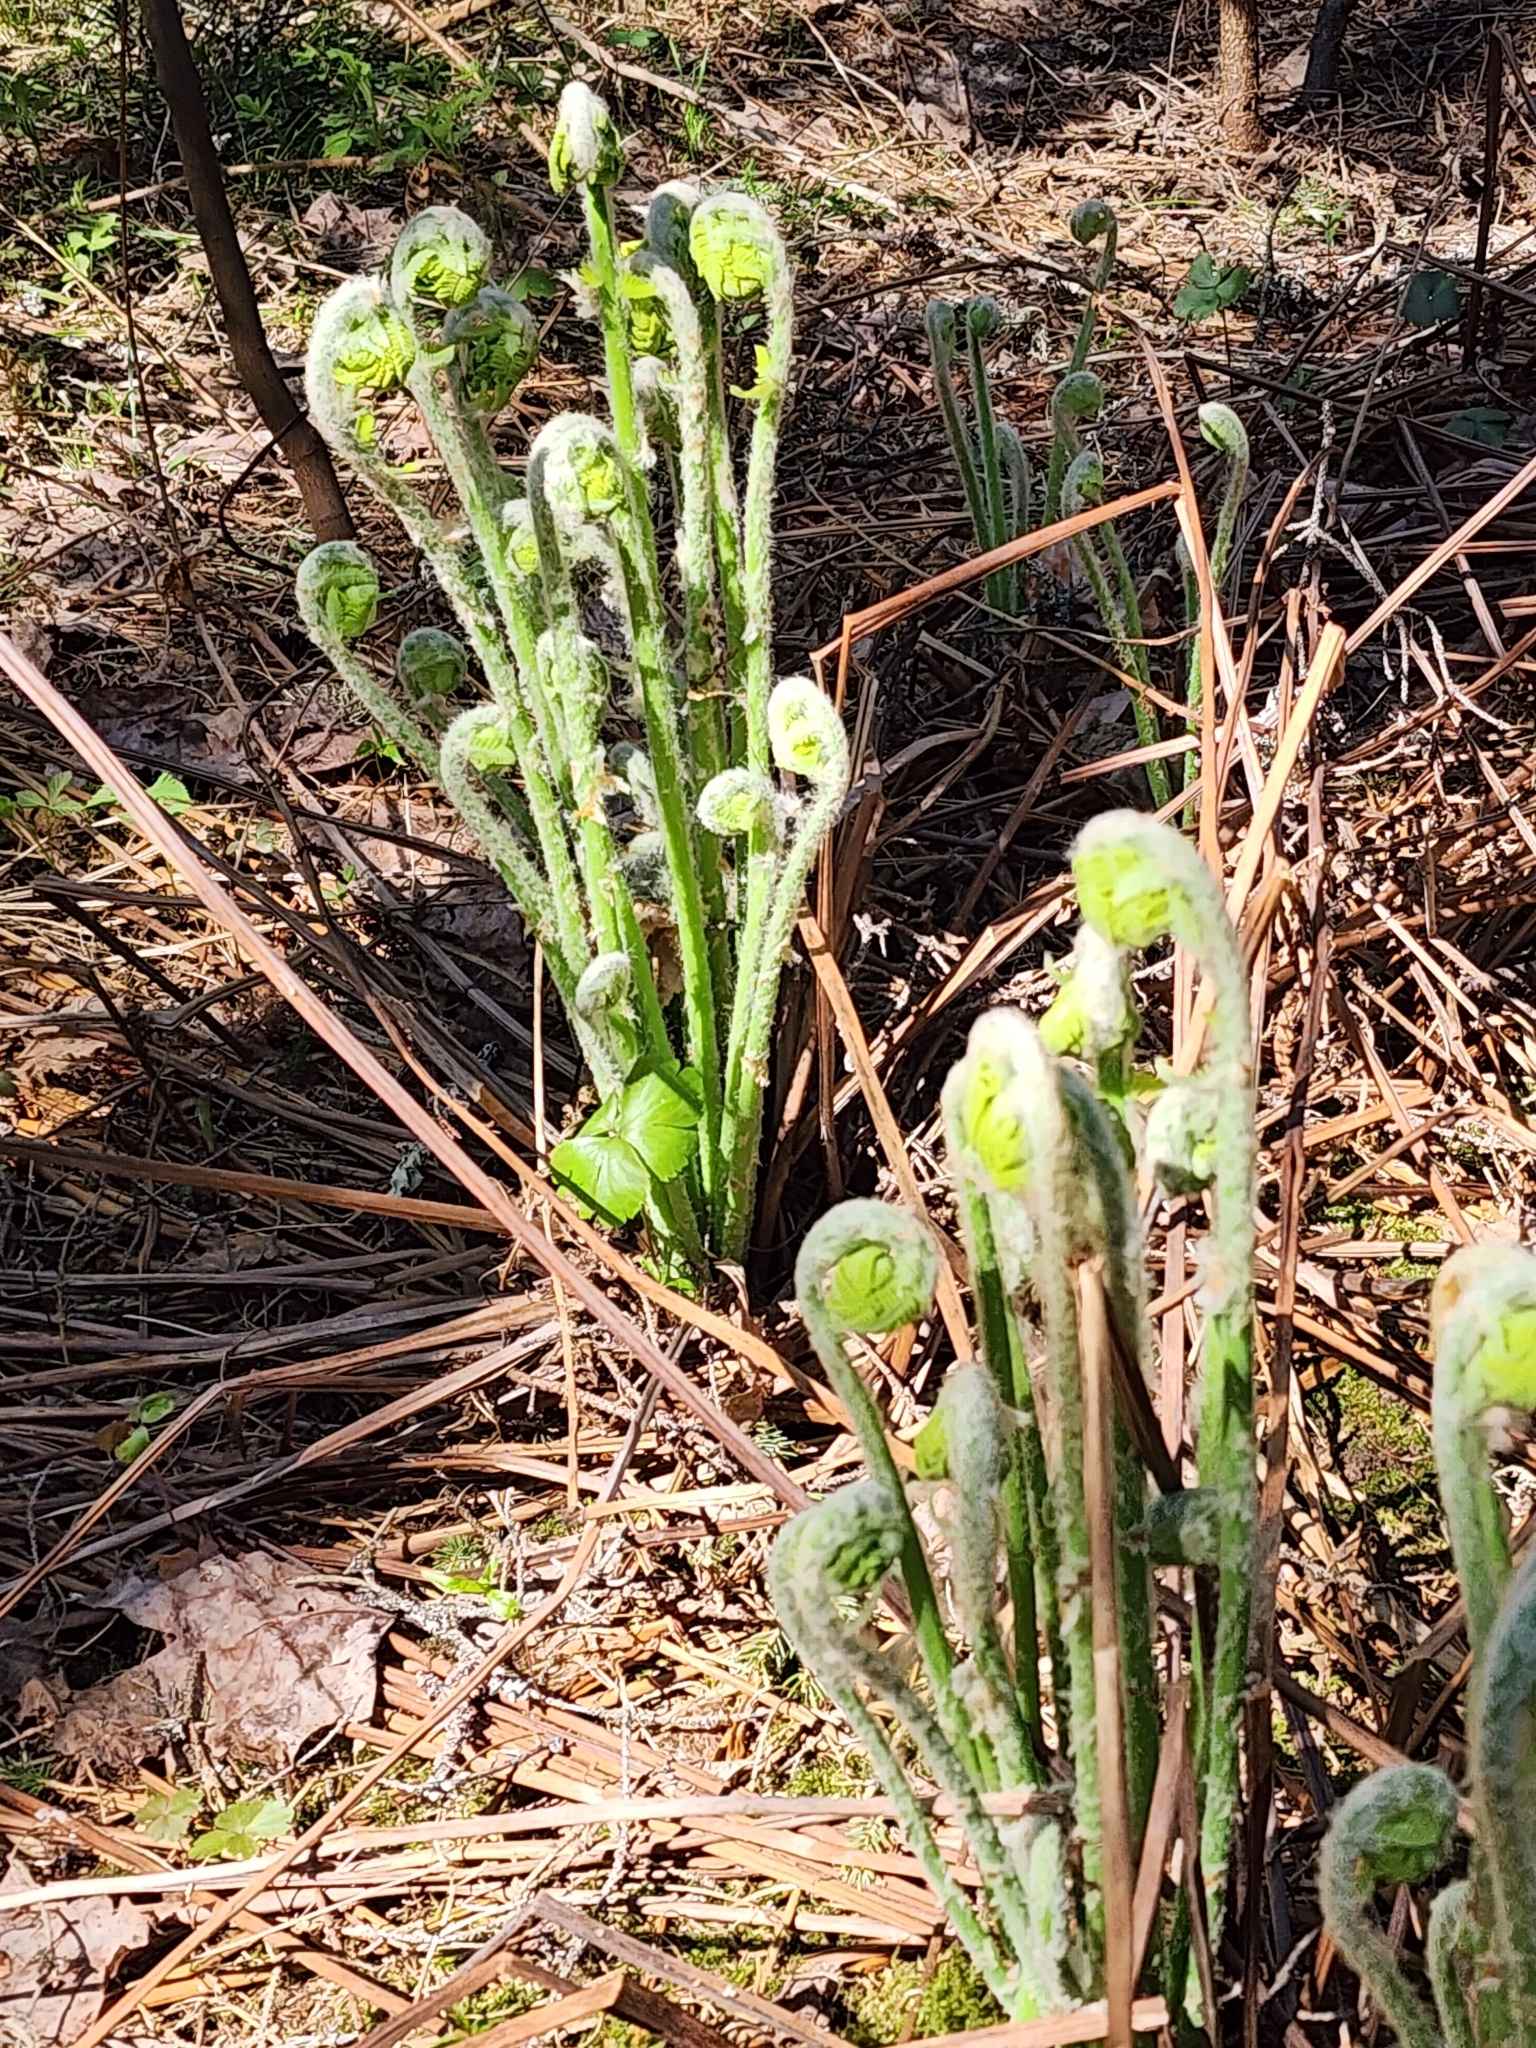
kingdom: Plantae
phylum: Tracheophyta
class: Polypodiopsida
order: Osmundales
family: Osmundaceae
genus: Claytosmunda
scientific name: Claytosmunda claytoniana
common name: Clayton's fern
